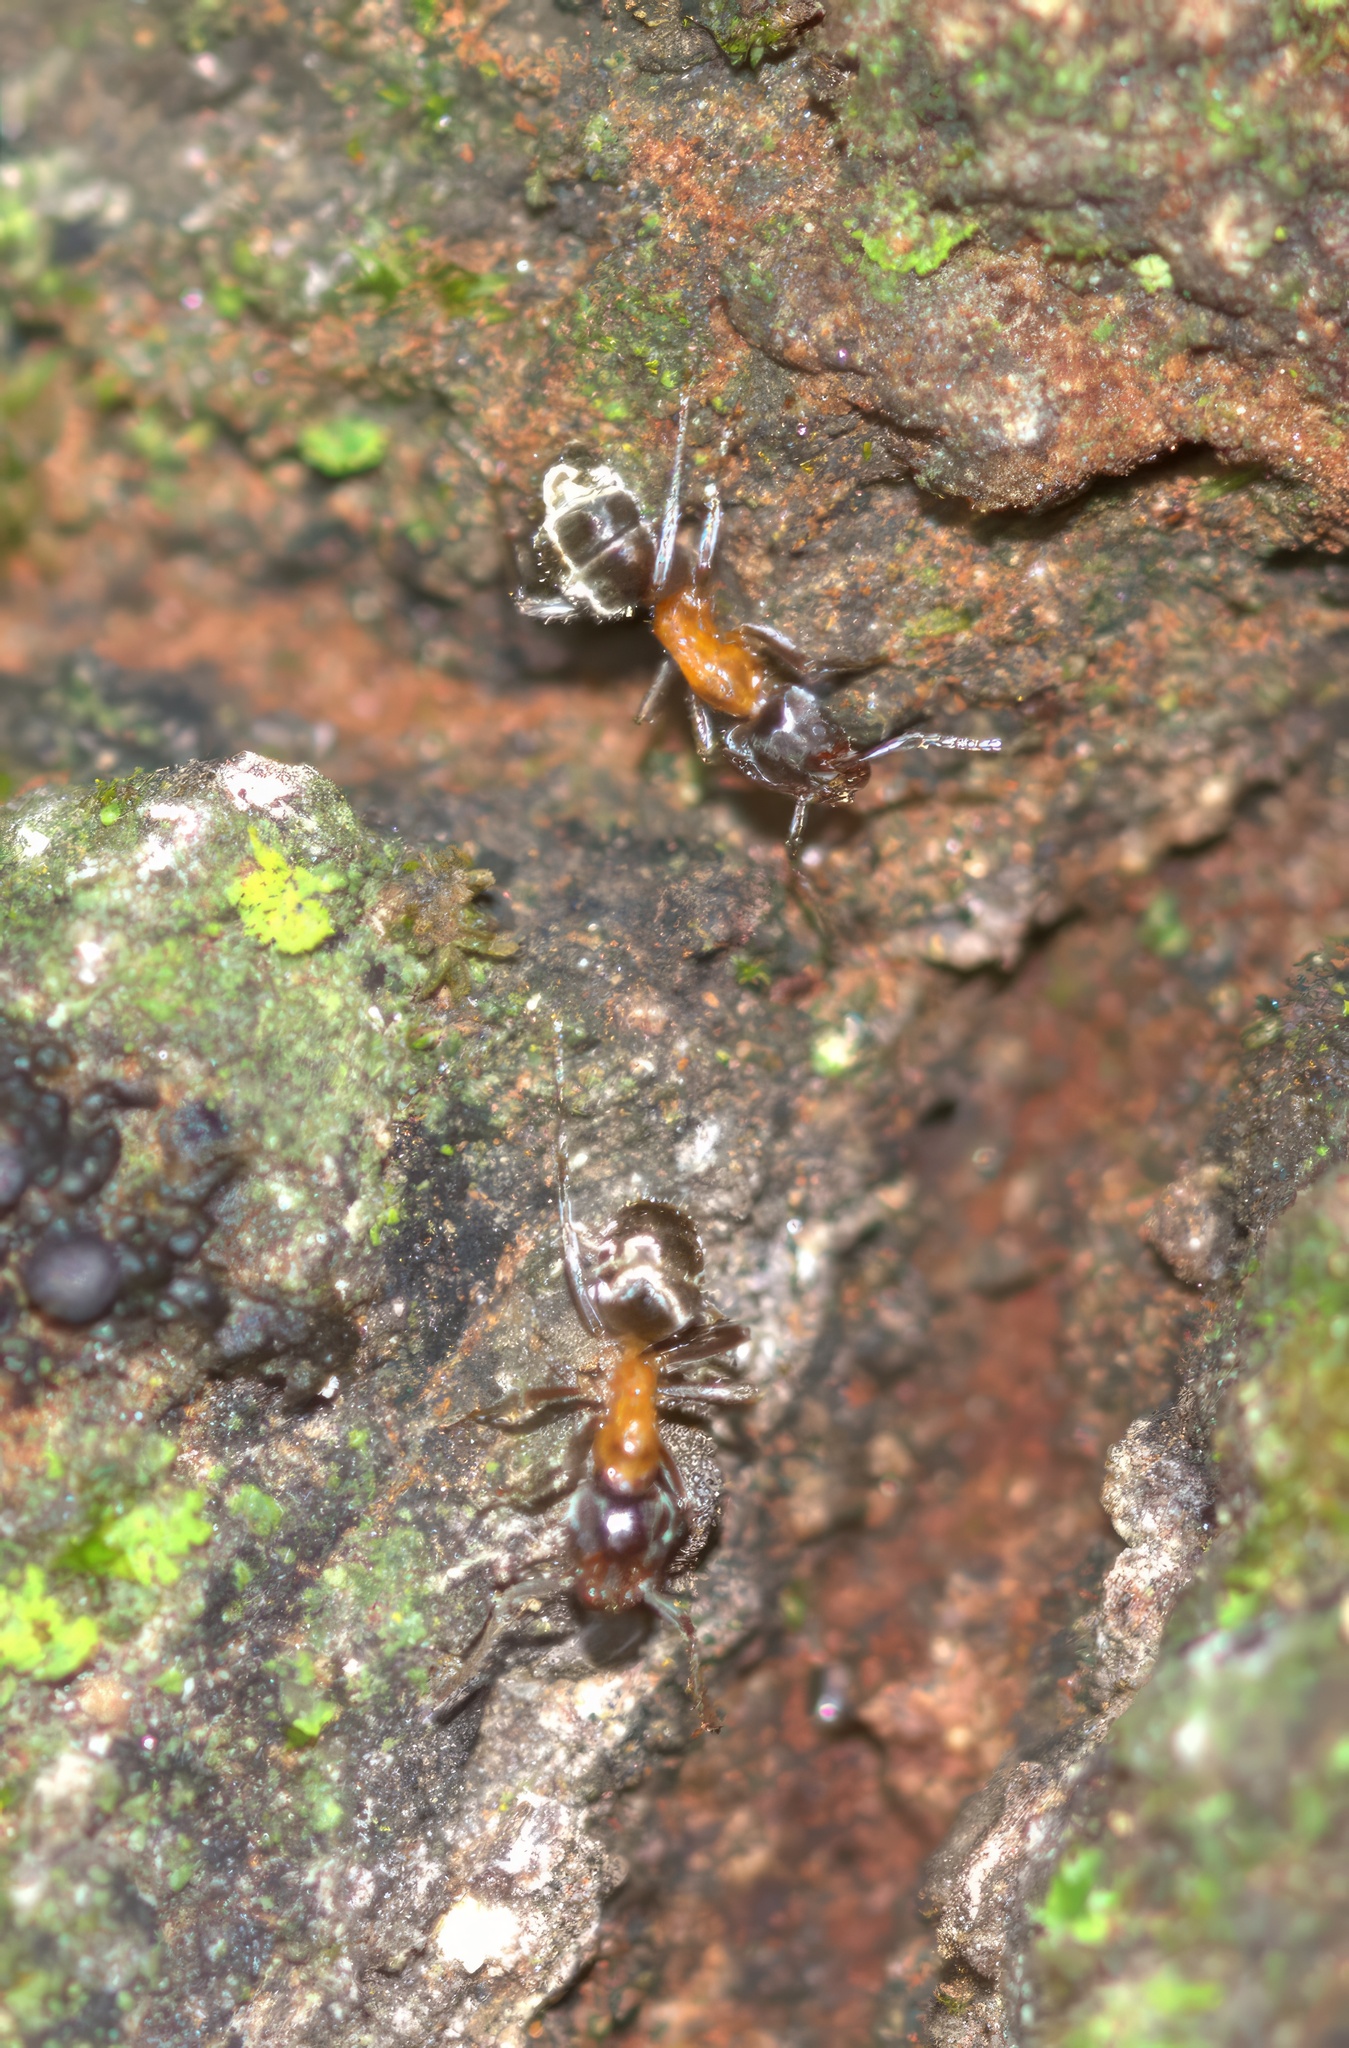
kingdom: Animalia
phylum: Arthropoda
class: Insecta
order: Hymenoptera
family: Formicidae
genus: Liometopum
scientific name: Liometopum occidentale
